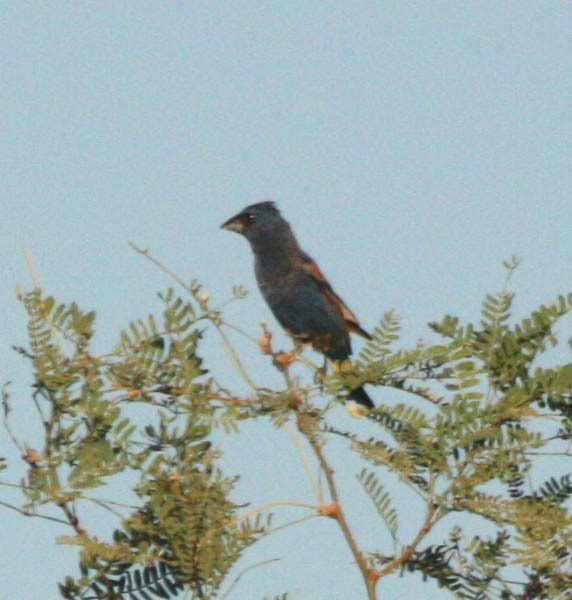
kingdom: Animalia
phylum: Chordata
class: Aves
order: Passeriformes
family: Cardinalidae
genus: Passerina
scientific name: Passerina caerulea
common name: Blue grosbeak
